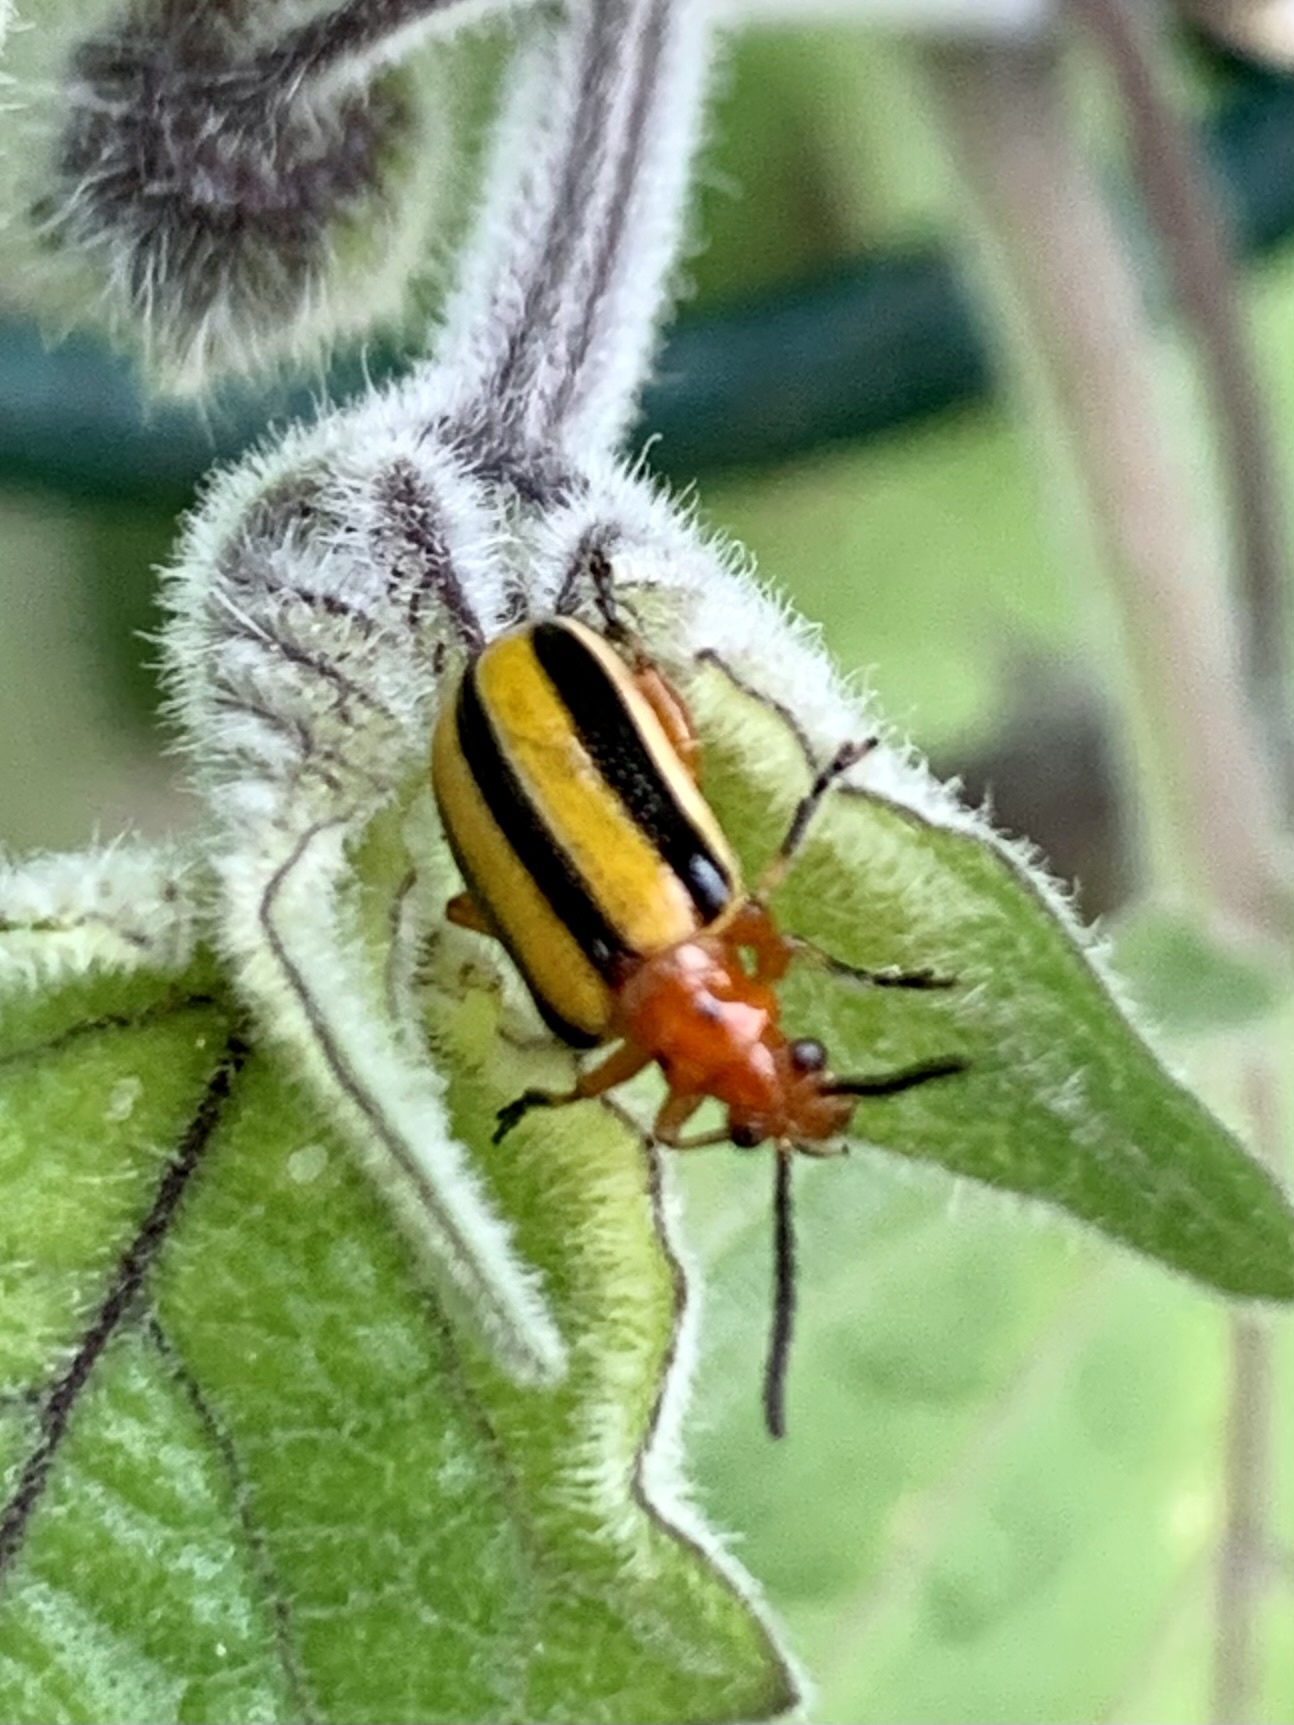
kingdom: Animalia
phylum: Arthropoda
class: Insecta
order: Coleoptera
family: Chrysomelidae
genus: Lema
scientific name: Lema daturaphila
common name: Leaf beetle
